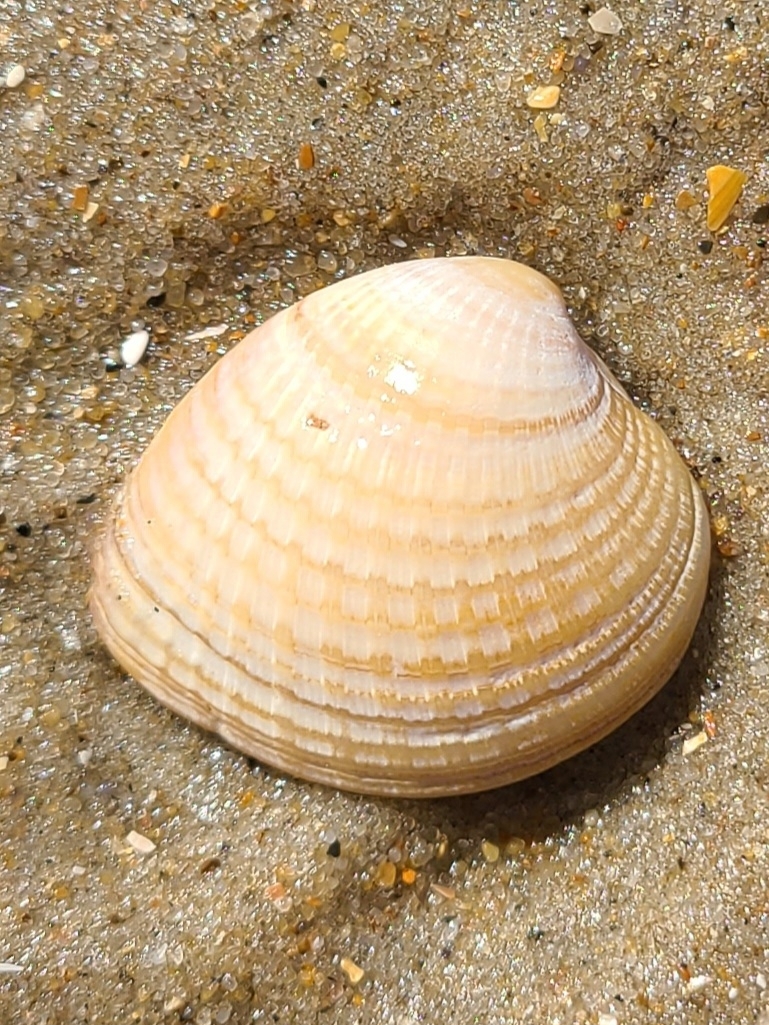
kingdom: Animalia
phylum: Mollusca
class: Bivalvia
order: Venerida
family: Veneridae
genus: Chione
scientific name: Chione elevata
